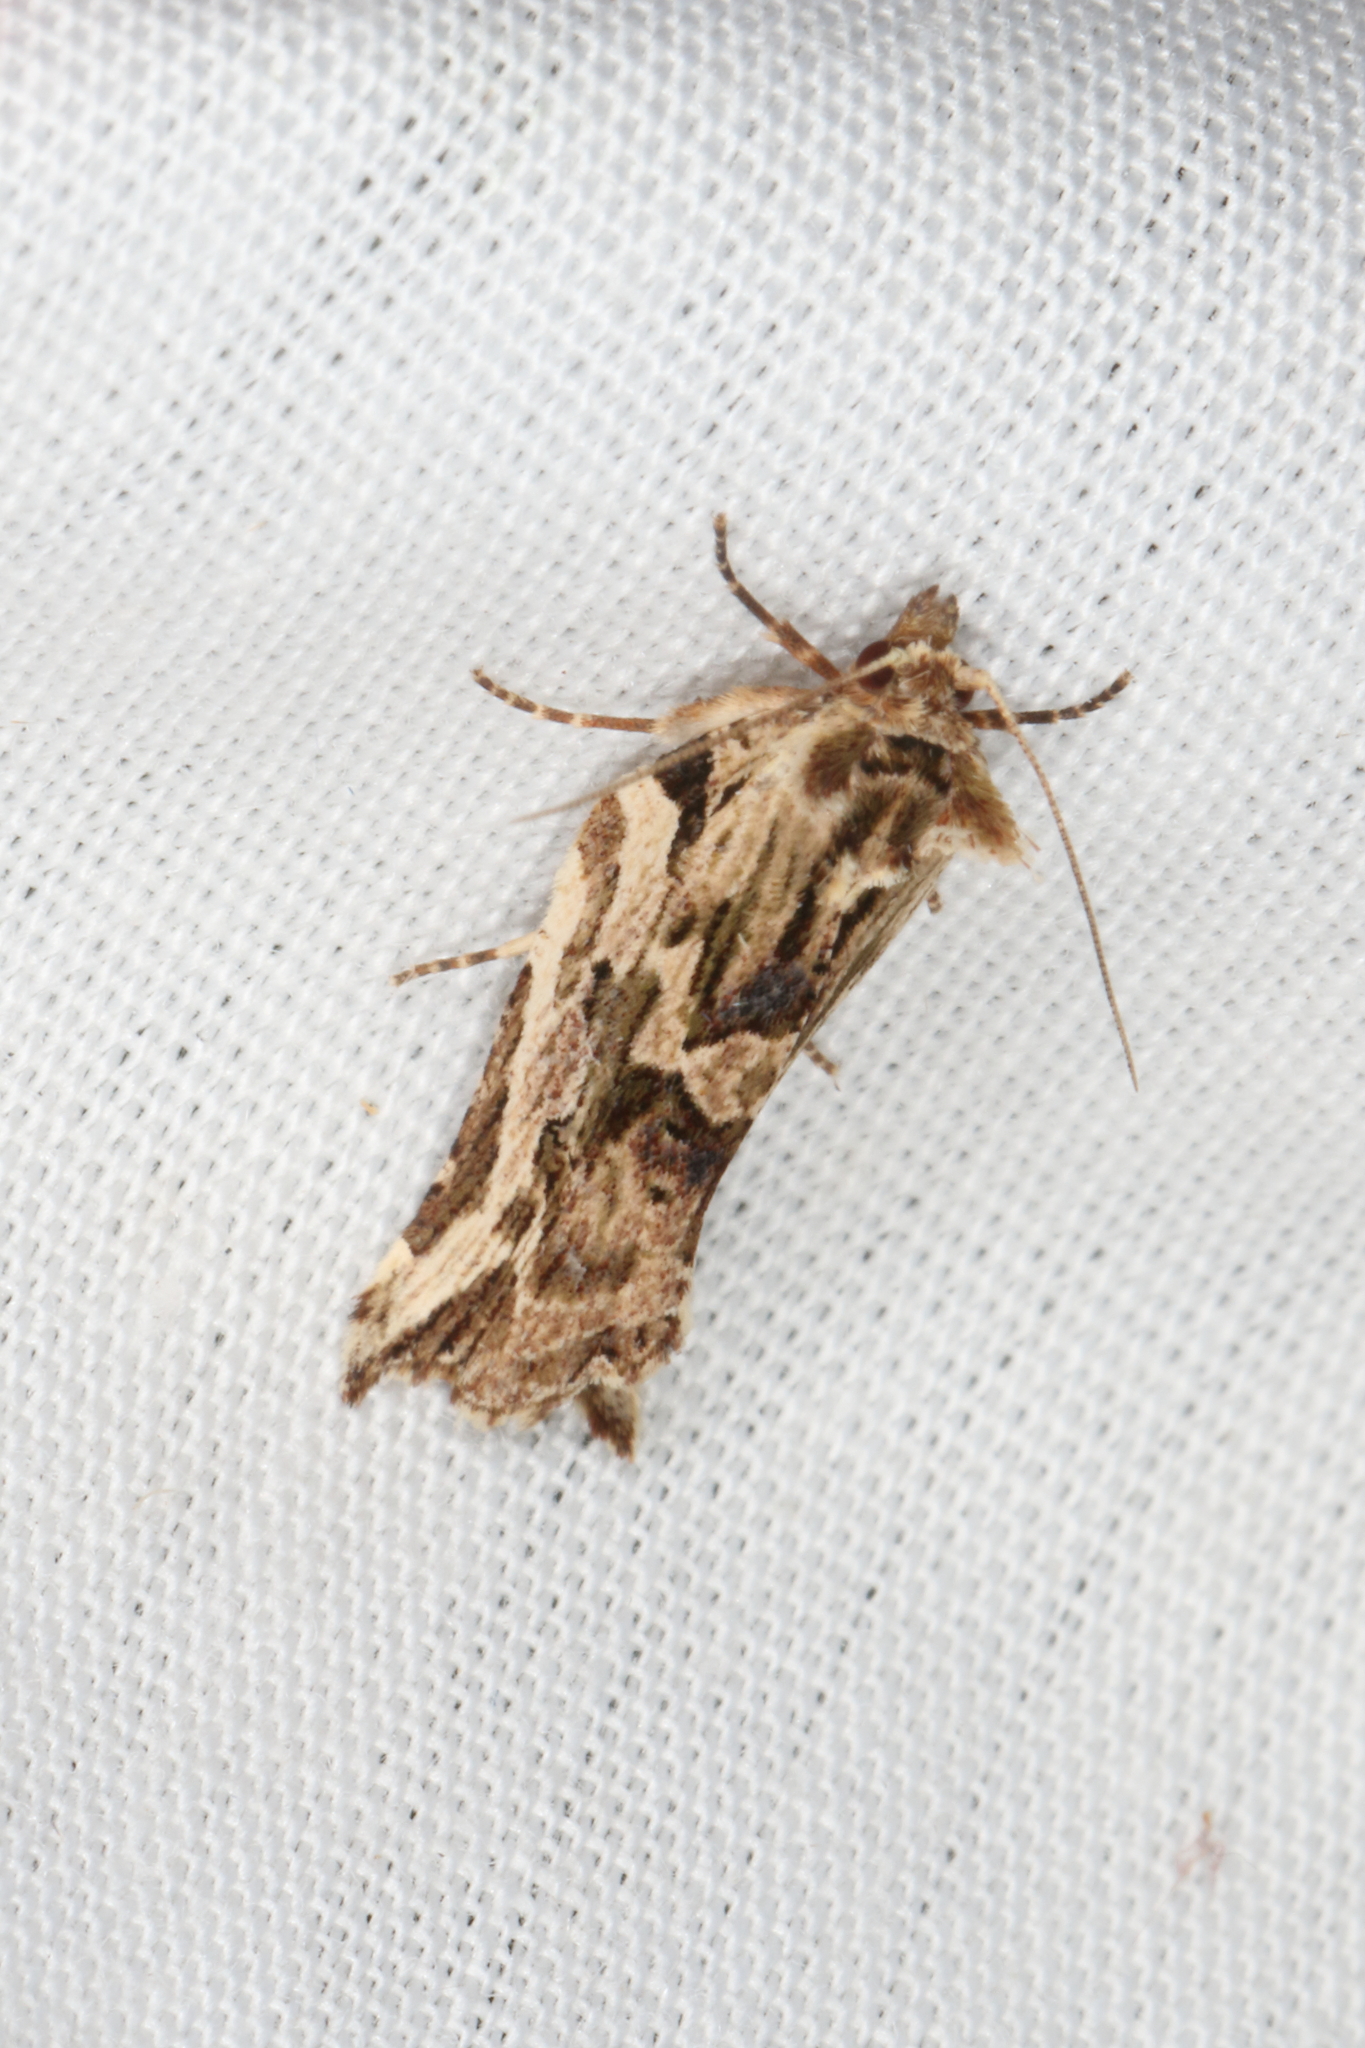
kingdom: Animalia
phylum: Arthropoda
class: Insecta
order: Lepidoptera
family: Tortricidae
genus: Epalxiphora
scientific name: Epalxiphora axenana
